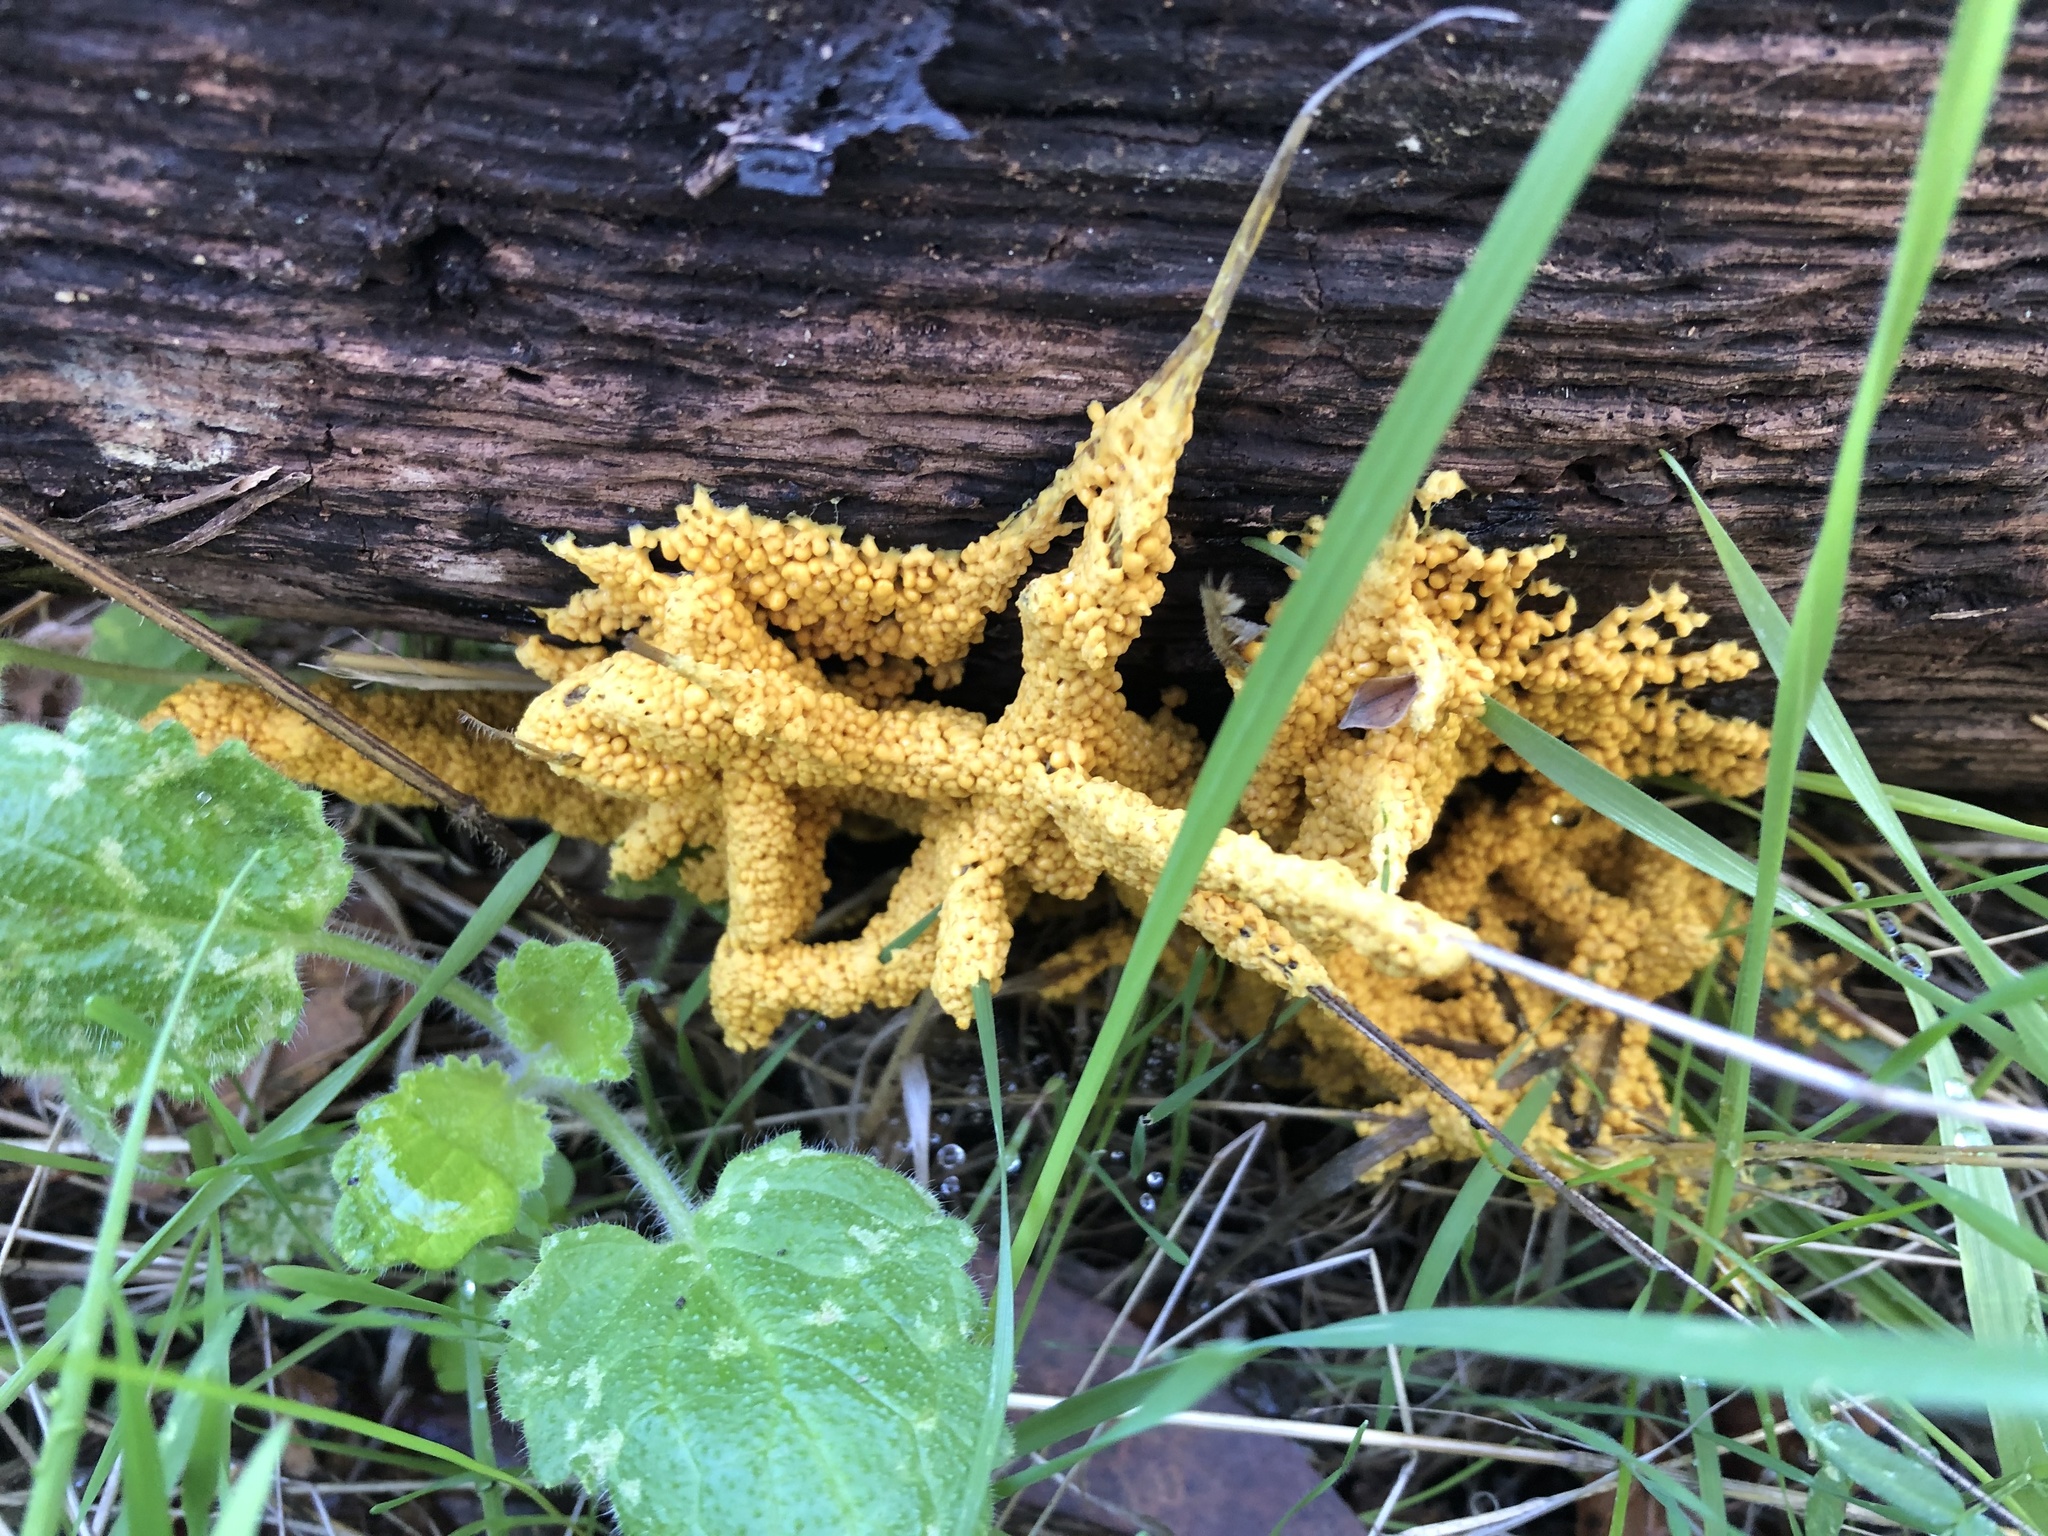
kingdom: Protozoa
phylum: Mycetozoa
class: Myxomycetes
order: Physarales
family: Physaraceae
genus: Leocarpus
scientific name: Leocarpus fragilis
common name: Insect-egg slime
